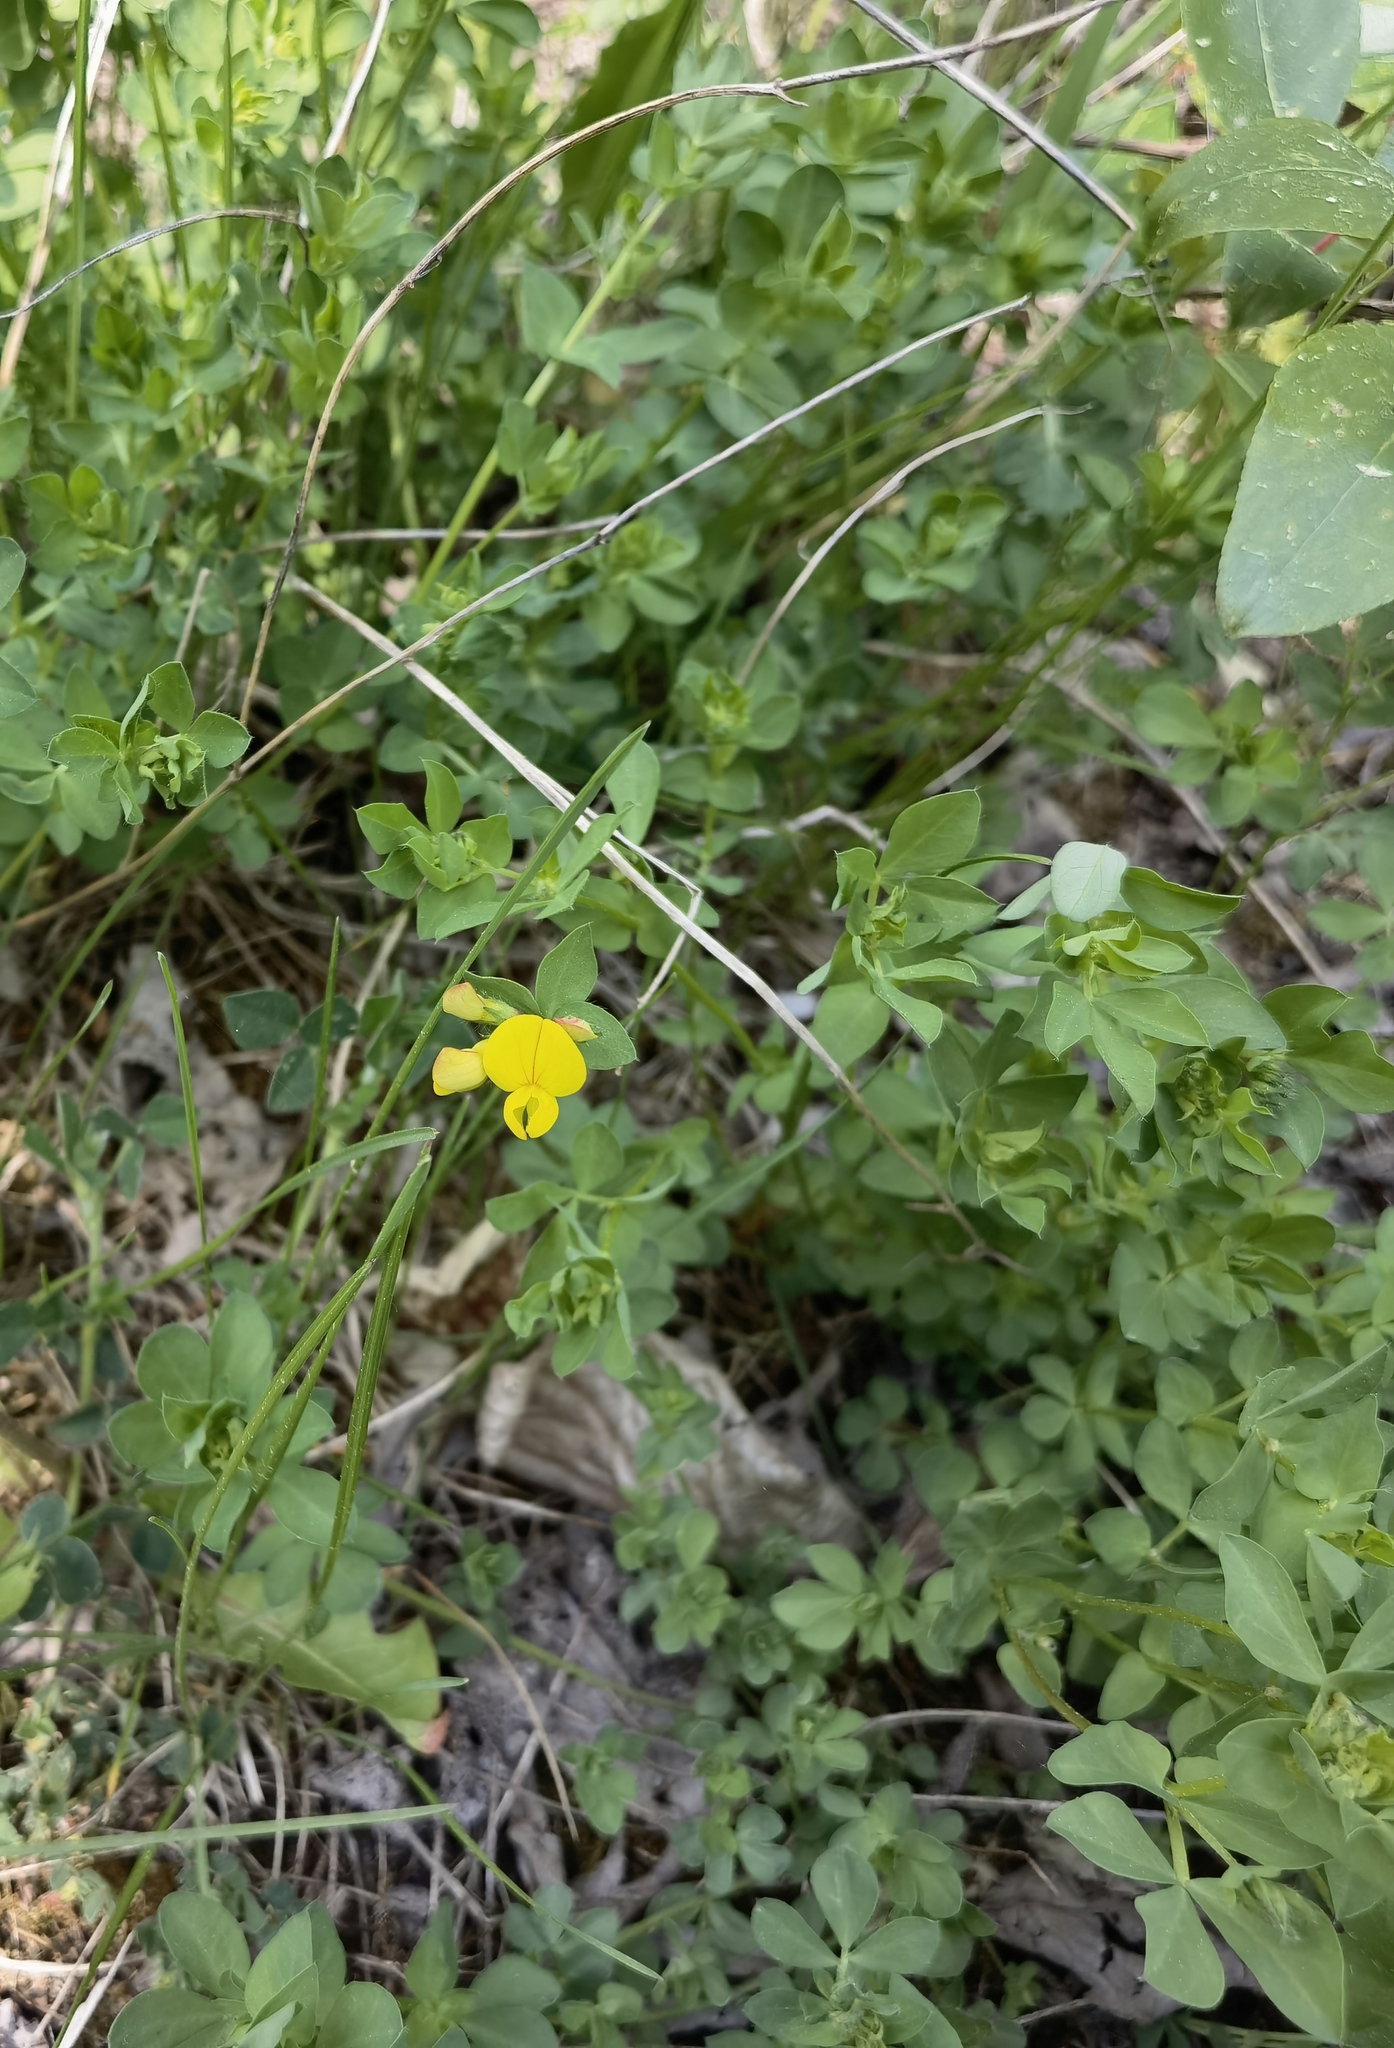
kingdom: Plantae
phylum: Tracheophyta
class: Magnoliopsida
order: Fabales
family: Fabaceae
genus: Lotus
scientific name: Lotus corniculatus
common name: Common bird's-foot-trefoil
